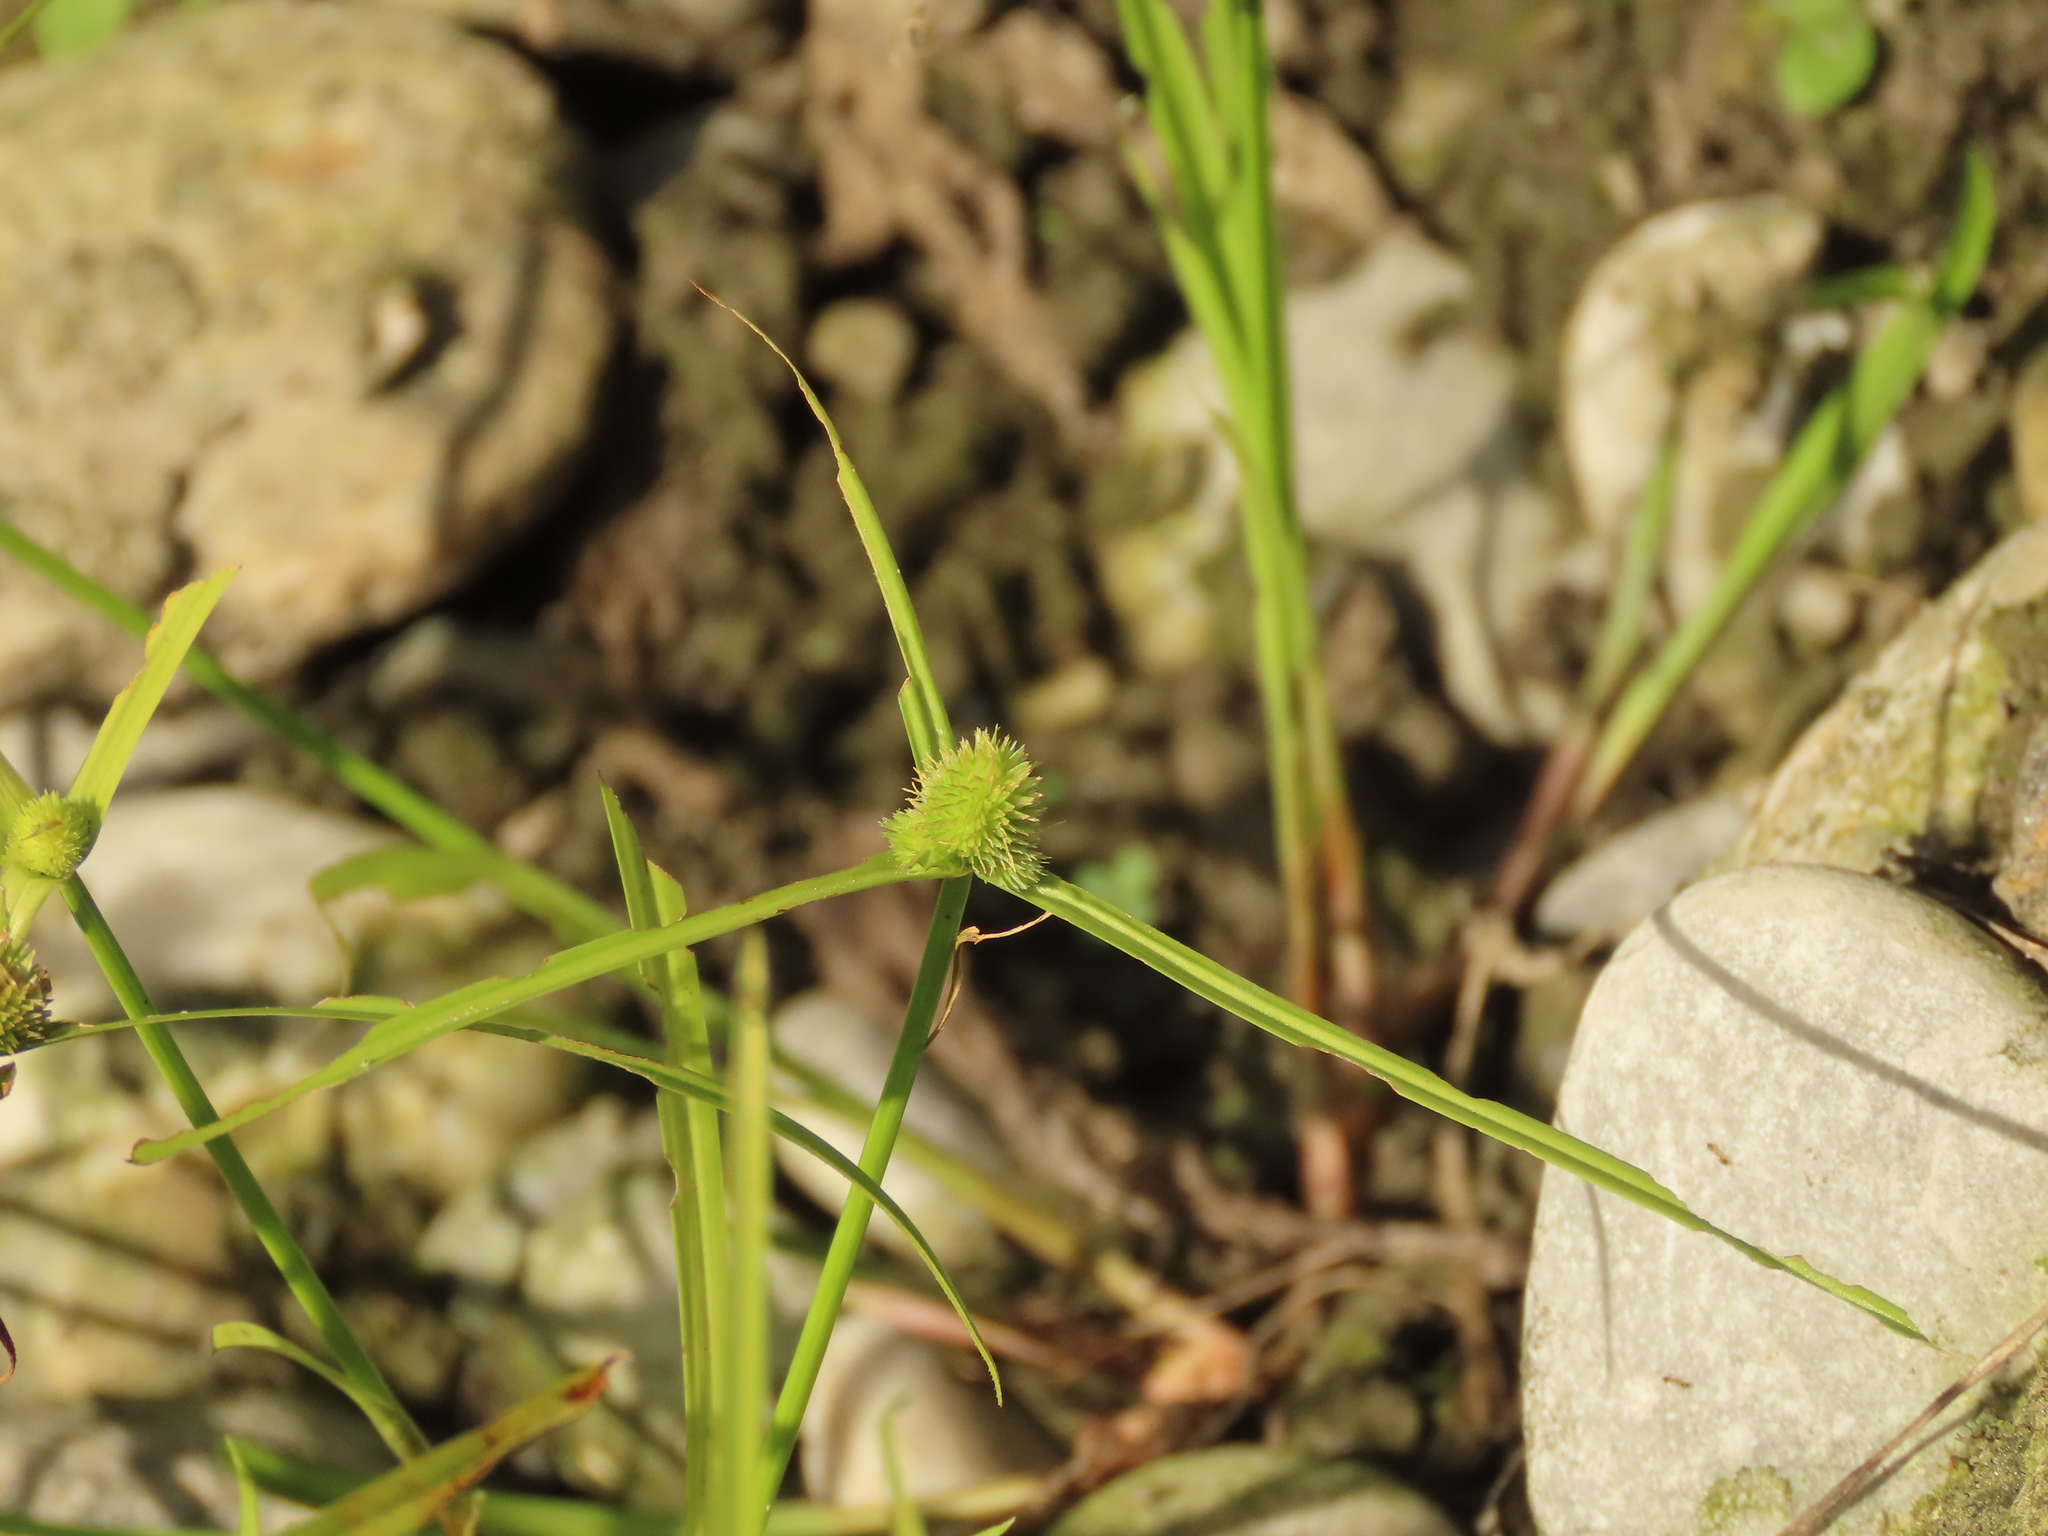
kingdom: Plantae
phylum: Tracheophyta
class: Liliopsida
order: Poales
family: Cyperaceae
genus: Cyperus
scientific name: Cyperus brevifolius
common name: Globe kyllinga
